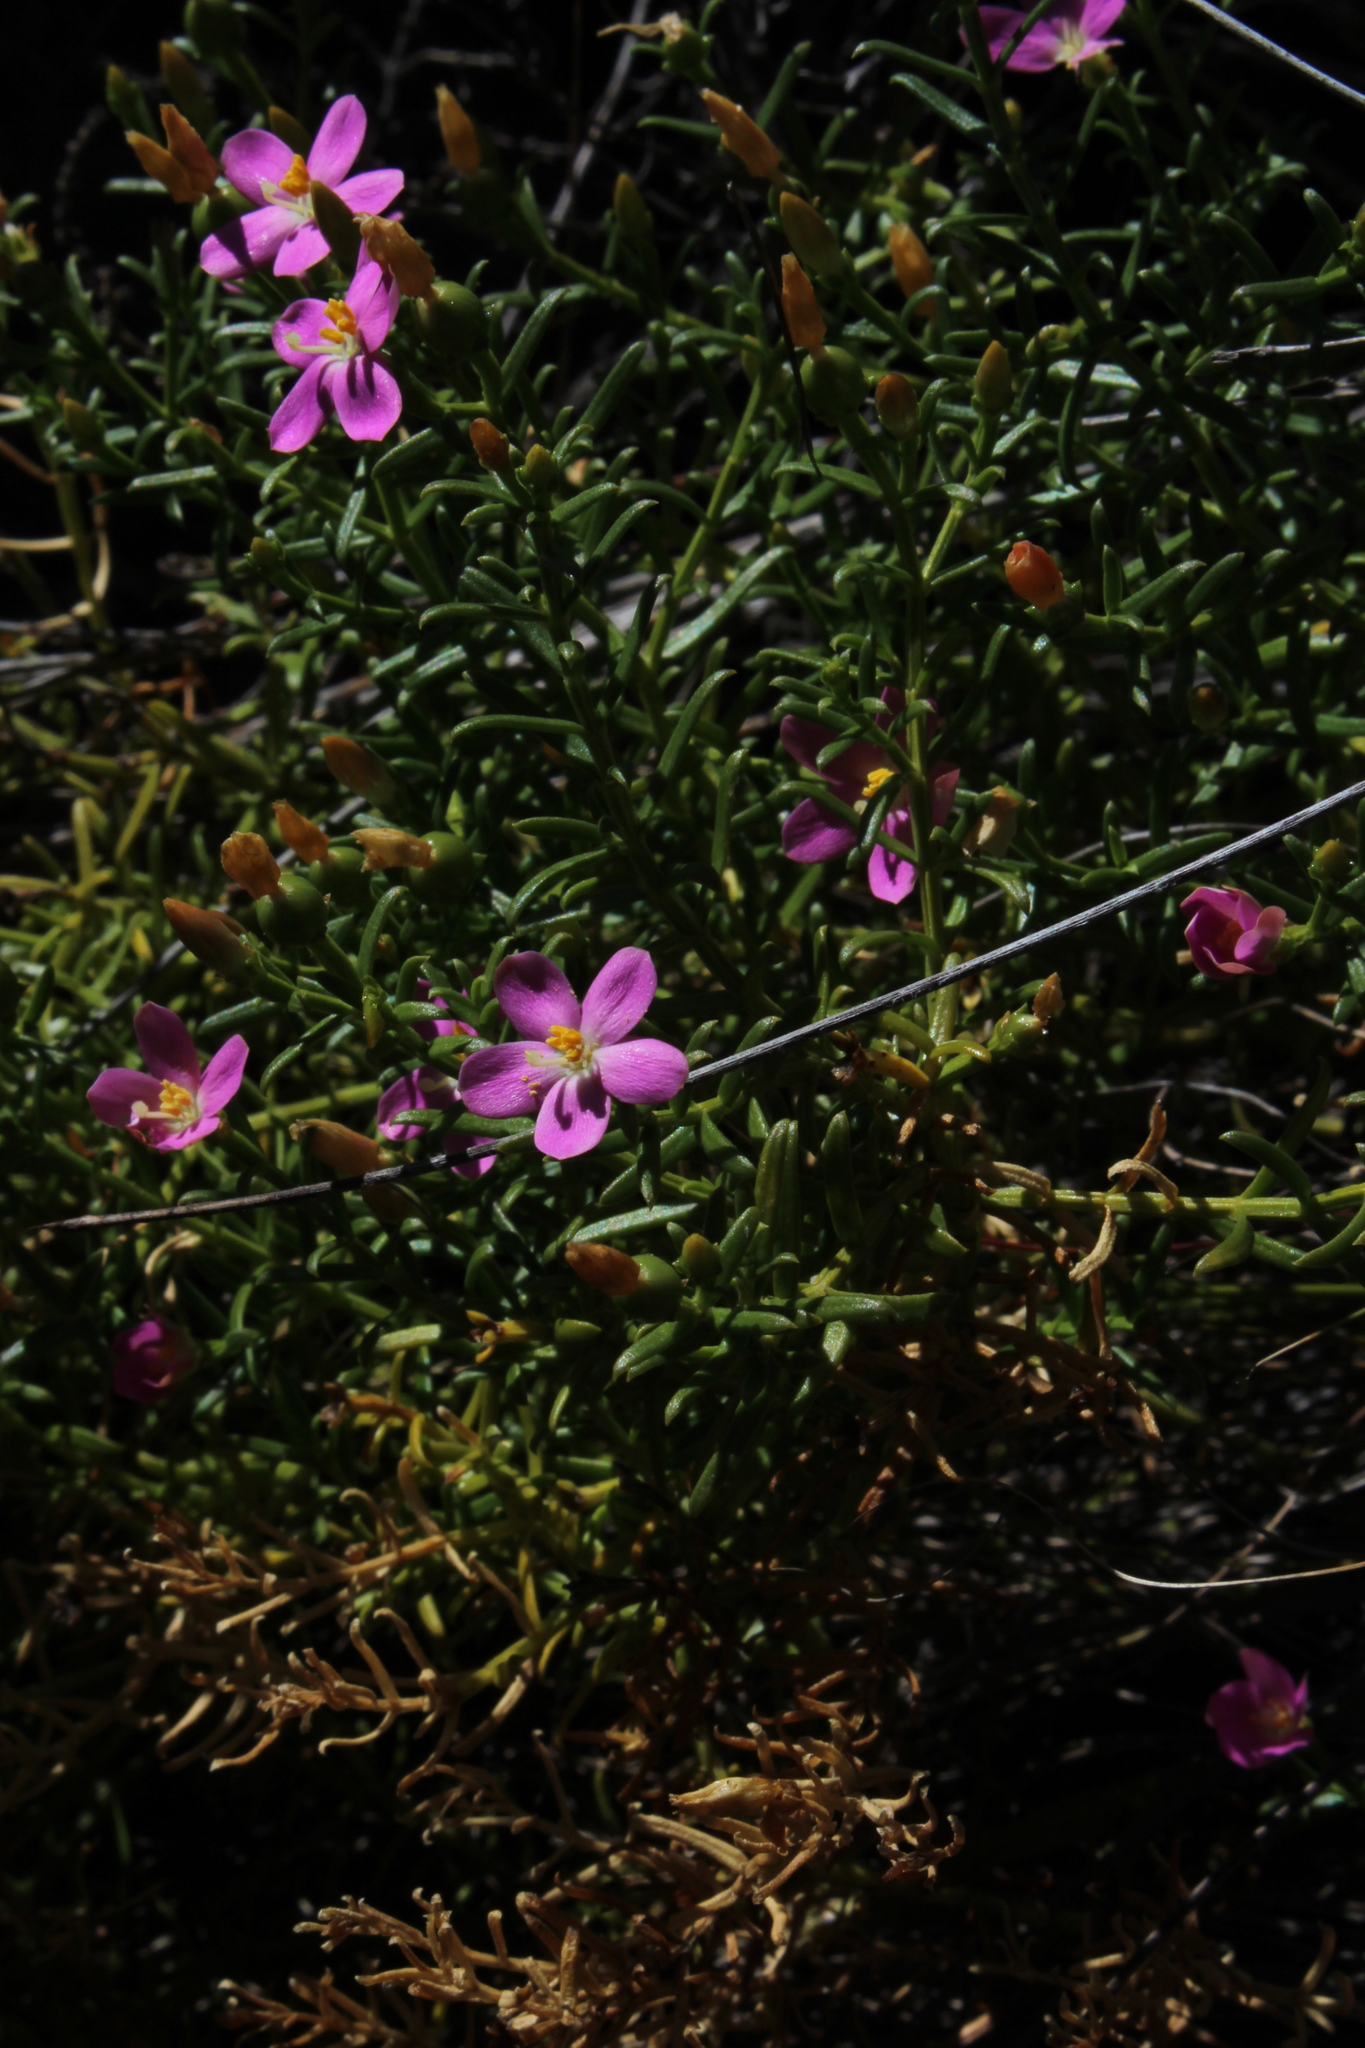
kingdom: Plantae
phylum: Tracheophyta
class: Magnoliopsida
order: Gentianales
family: Gentianaceae
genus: Chironia
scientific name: Chironia baccifera
